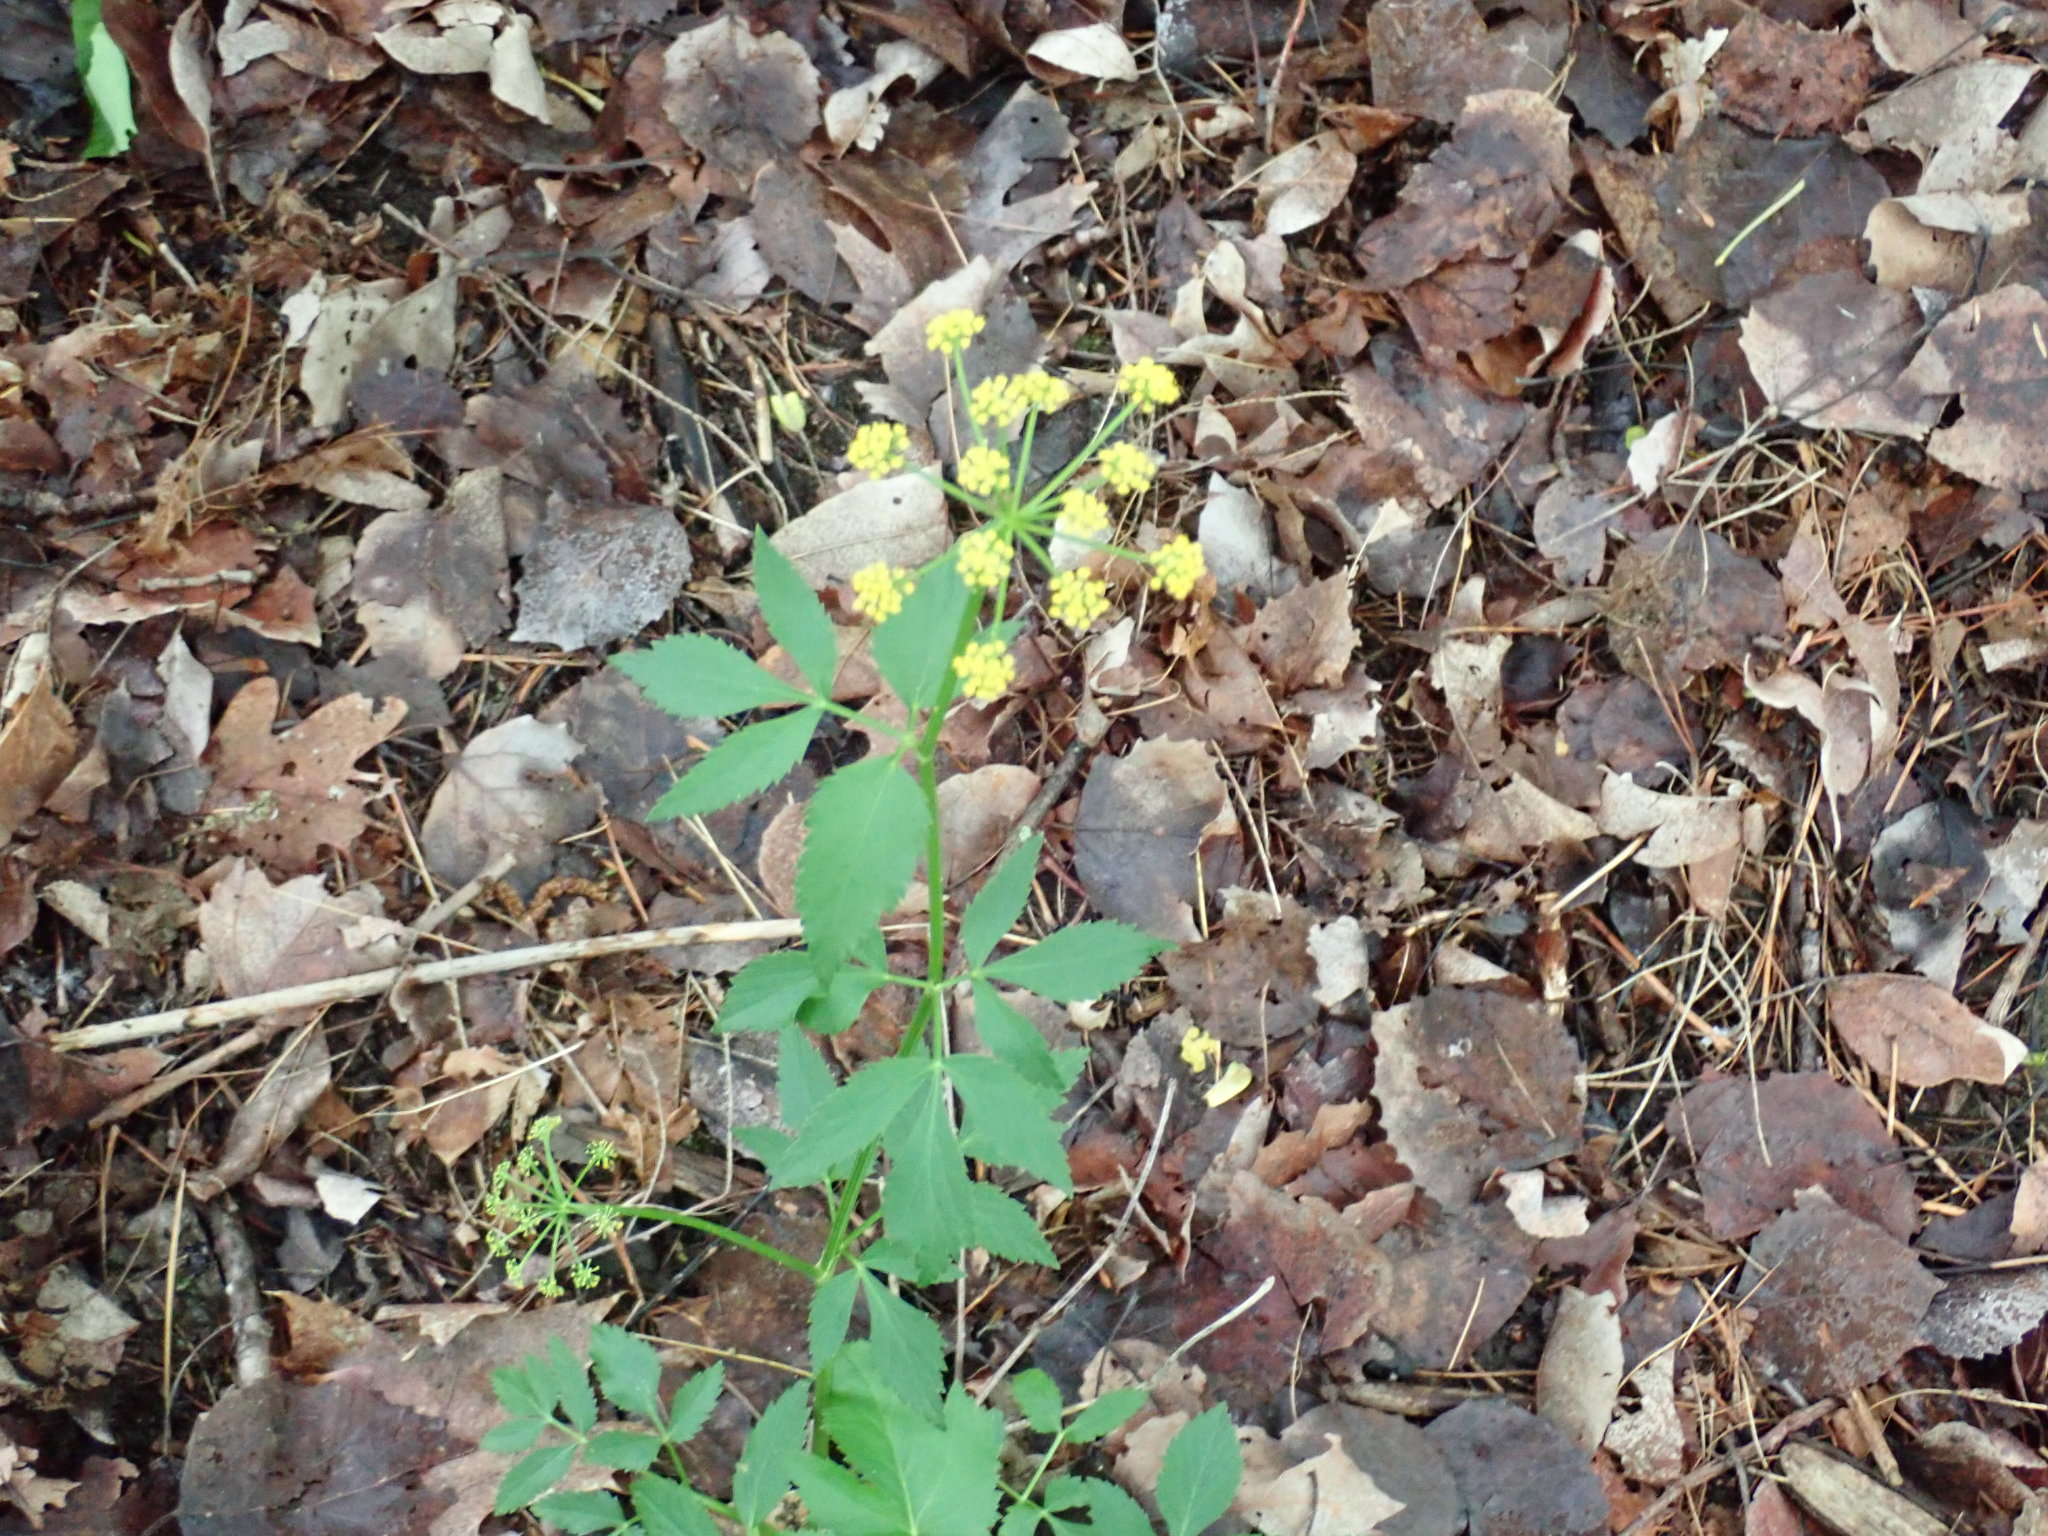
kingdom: Plantae
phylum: Tracheophyta
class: Magnoliopsida
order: Apiales
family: Apiaceae
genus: Zizia
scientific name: Zizia aurea
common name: Golden alexanders
